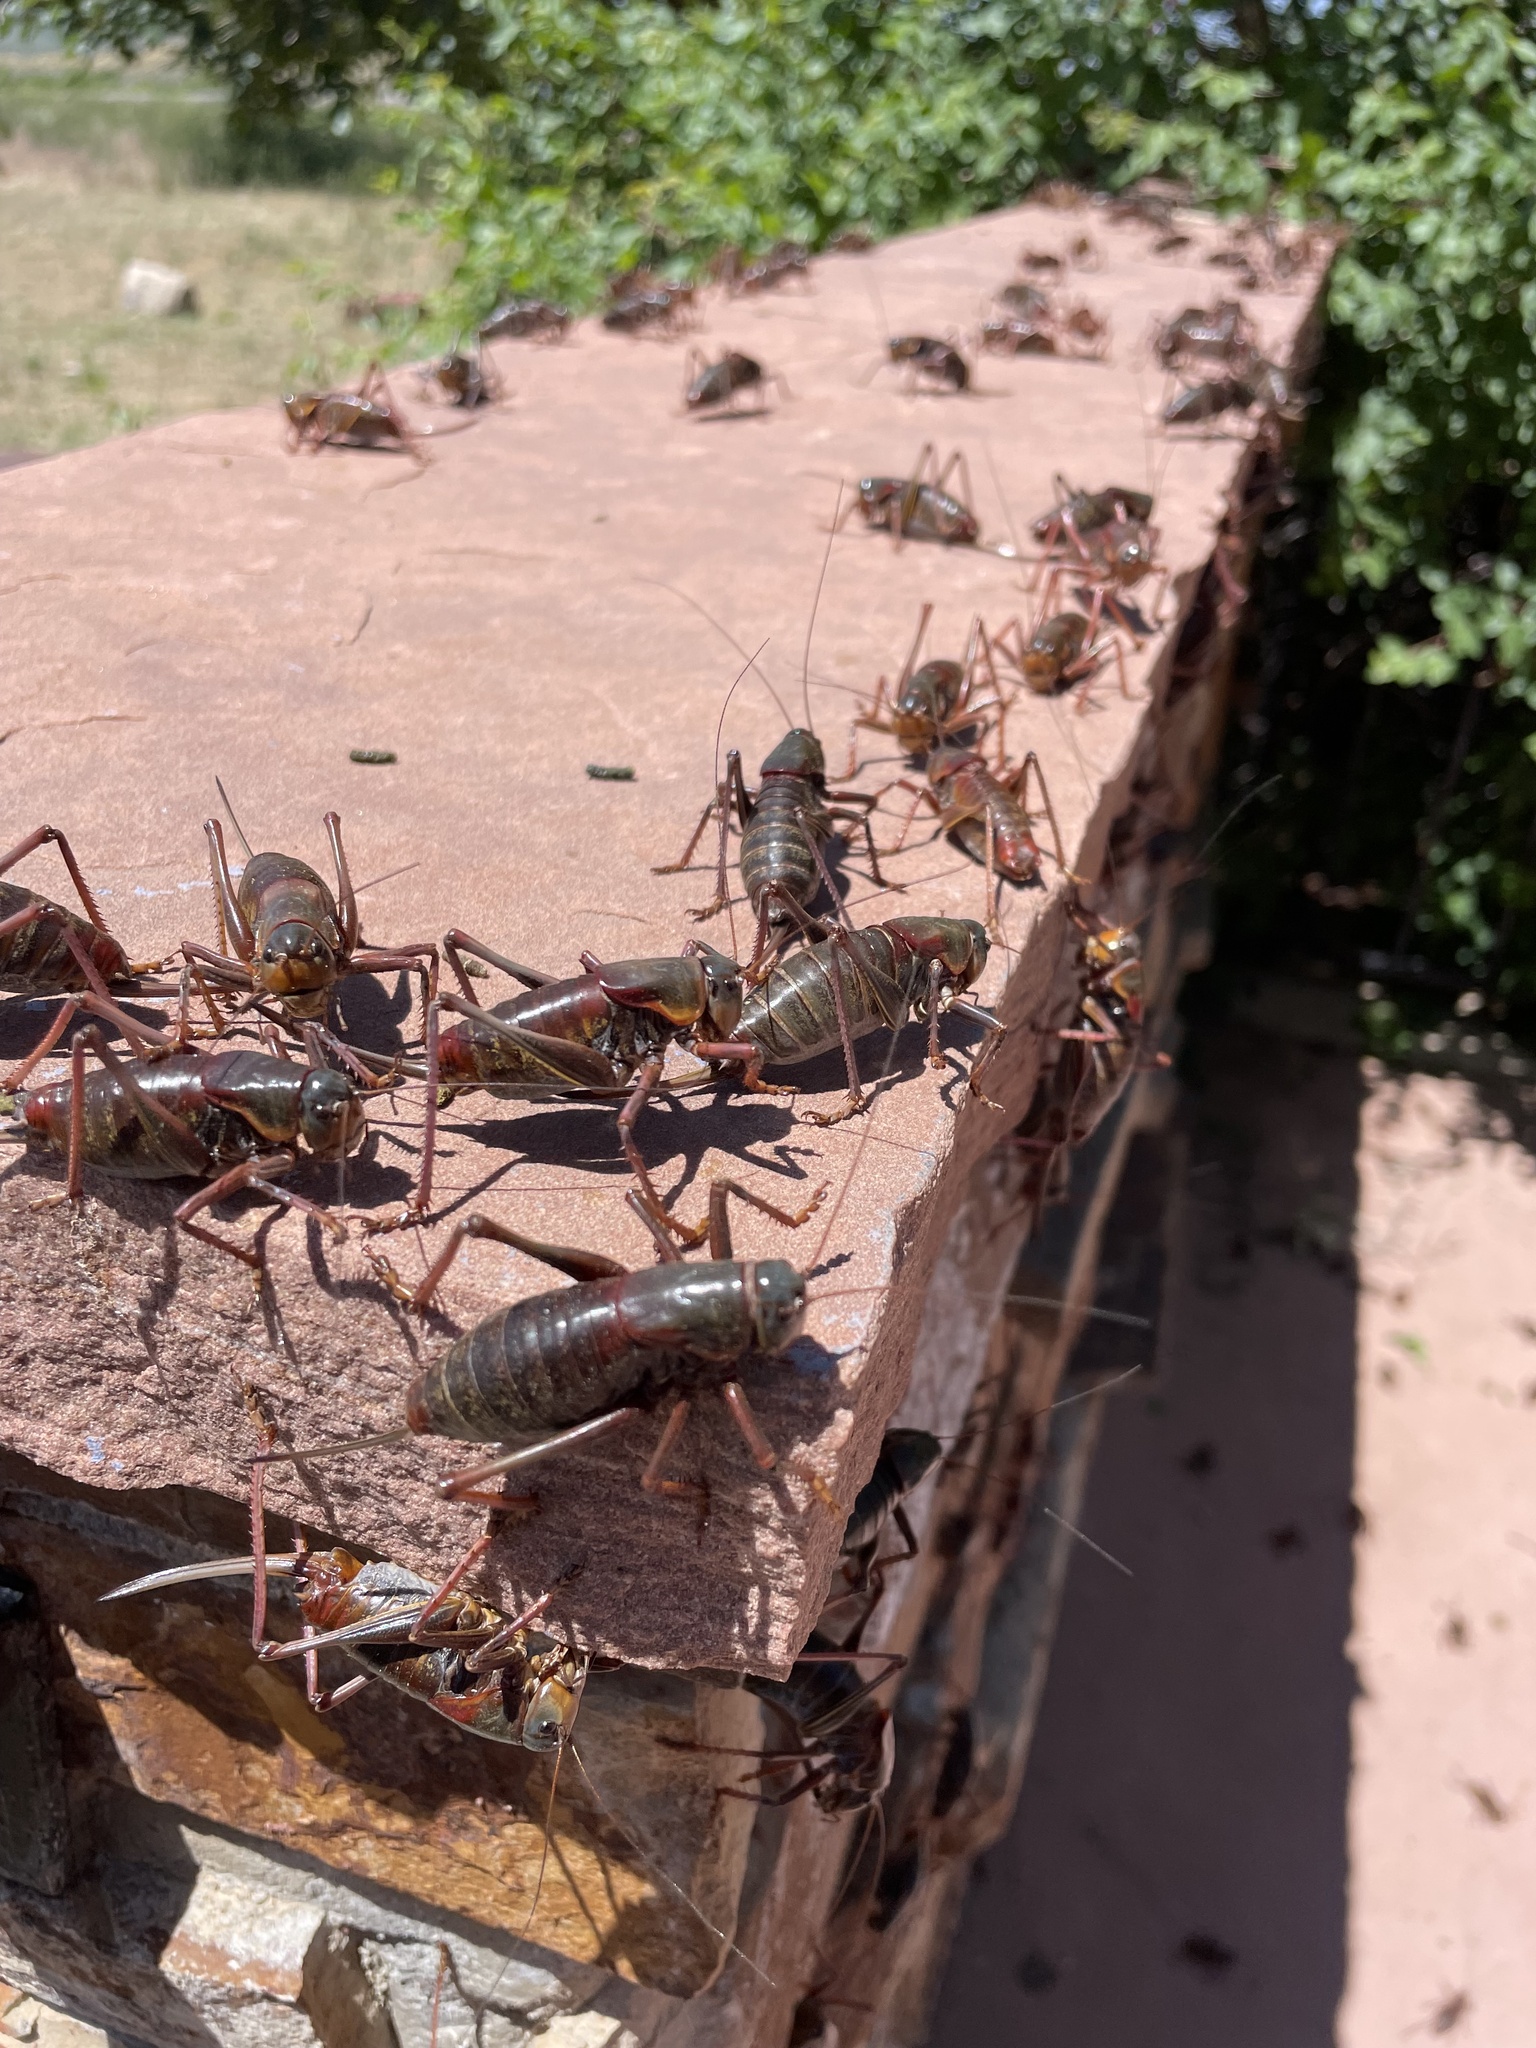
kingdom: Animalia
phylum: Arthropoda
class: Insecta
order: Orthoptera
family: Tettigoniidae
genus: Anabrus
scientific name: Anabrus simplex
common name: Mormon cricket
